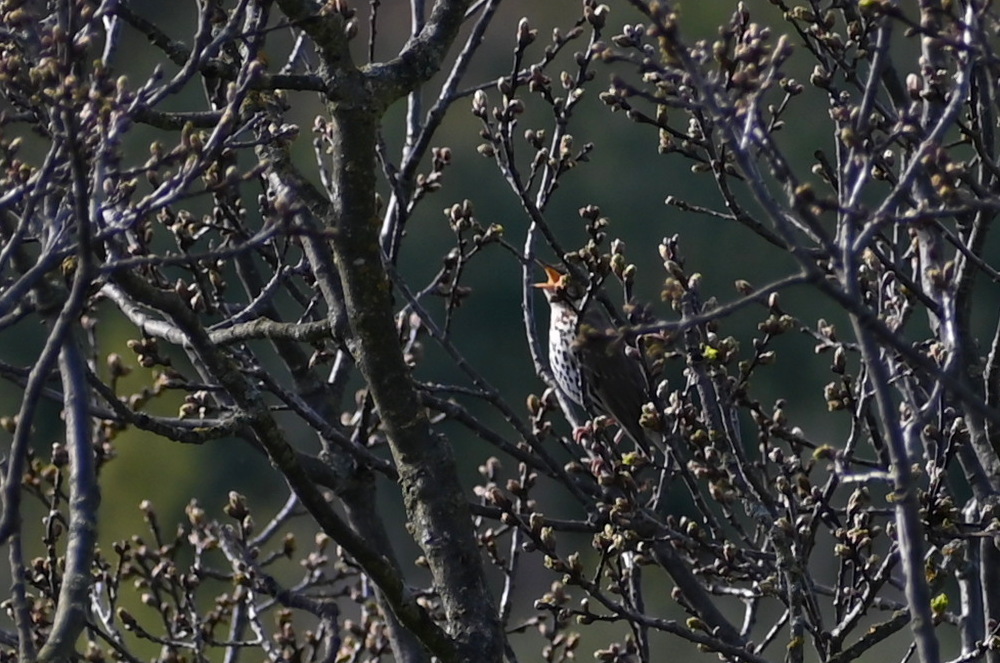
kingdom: Animalia
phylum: Chordata
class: Aves
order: Passeriformes
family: Turdidae
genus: Turdus
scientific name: Turdus philomelos
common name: Song thrush
